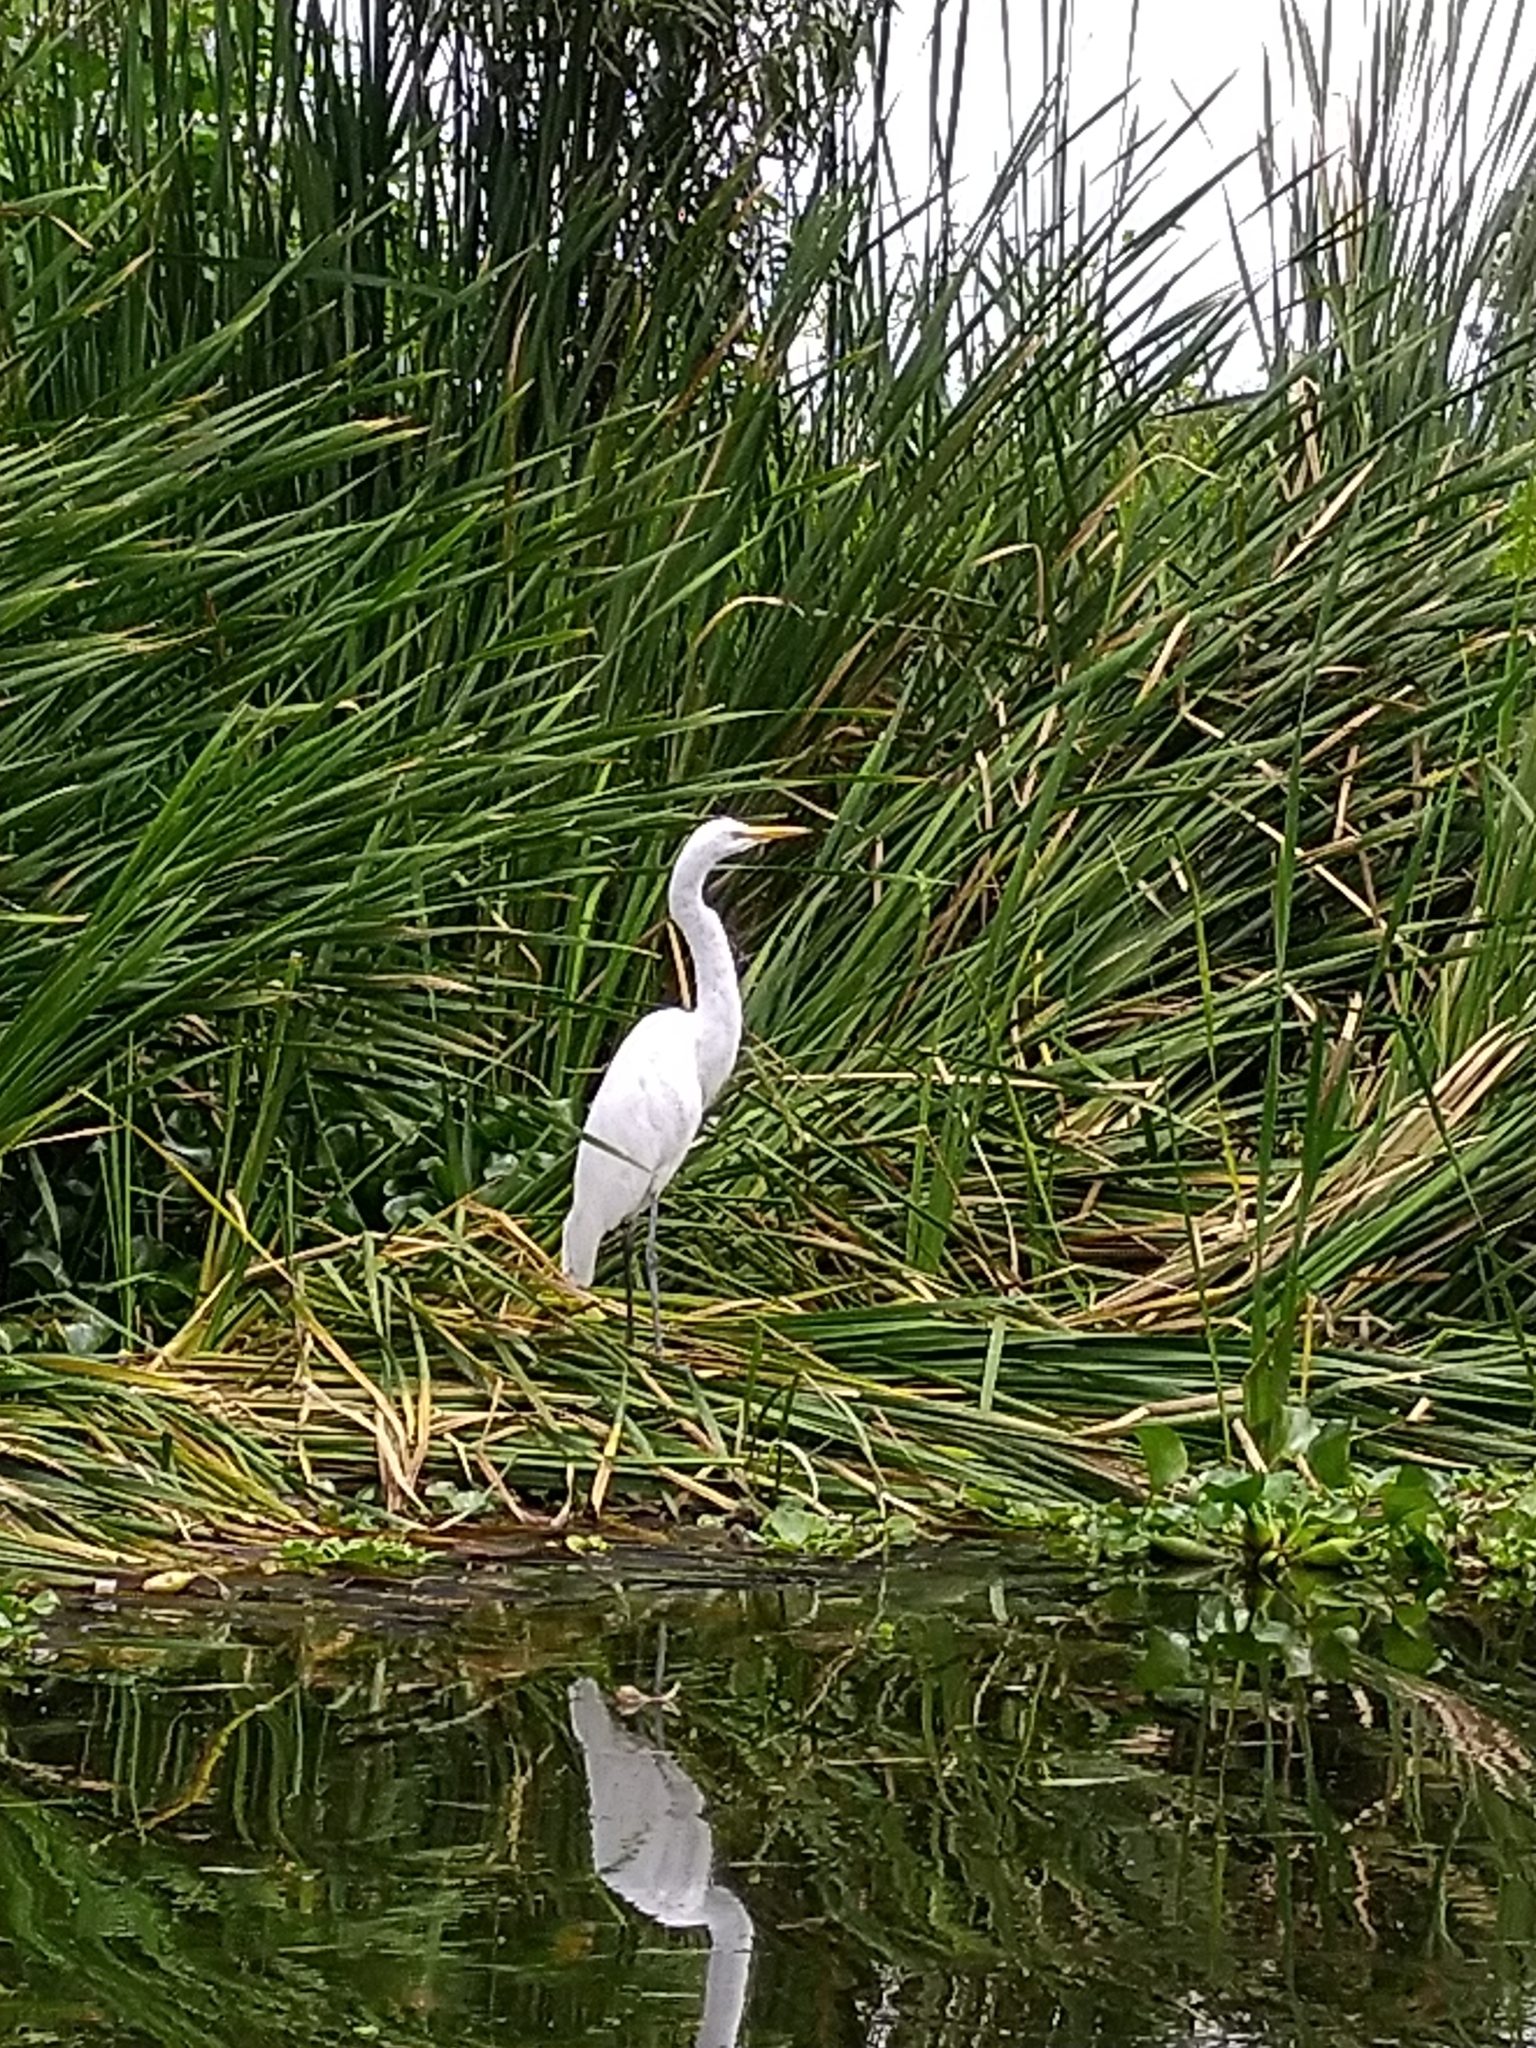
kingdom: Animalia
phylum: Chordata
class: Aves
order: Pelecaniformes
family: Ardeidae
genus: Ardea
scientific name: Ardea alba
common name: Great egret
